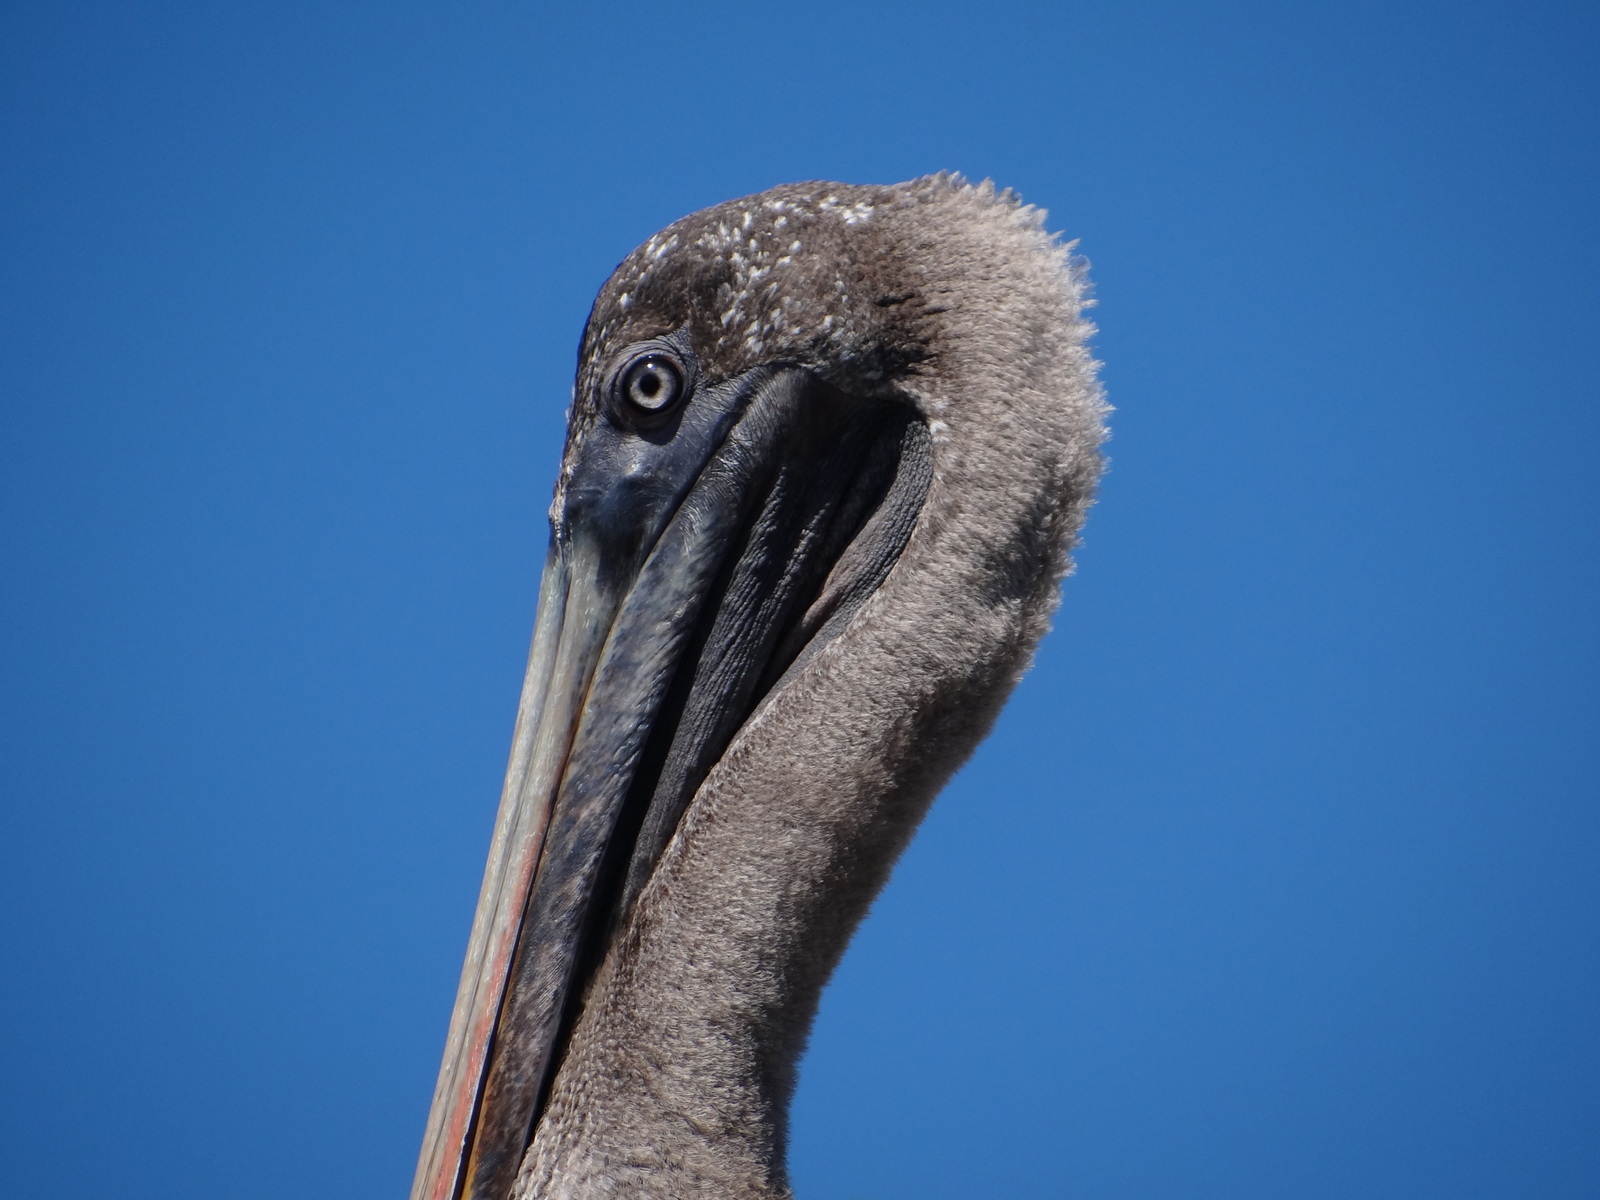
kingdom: Animalia
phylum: Chordata
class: Aves
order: Pelecaniformes
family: Pelecanidae
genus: Pelecanus
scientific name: Pelecanus occidentalis
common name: Brown pelican
